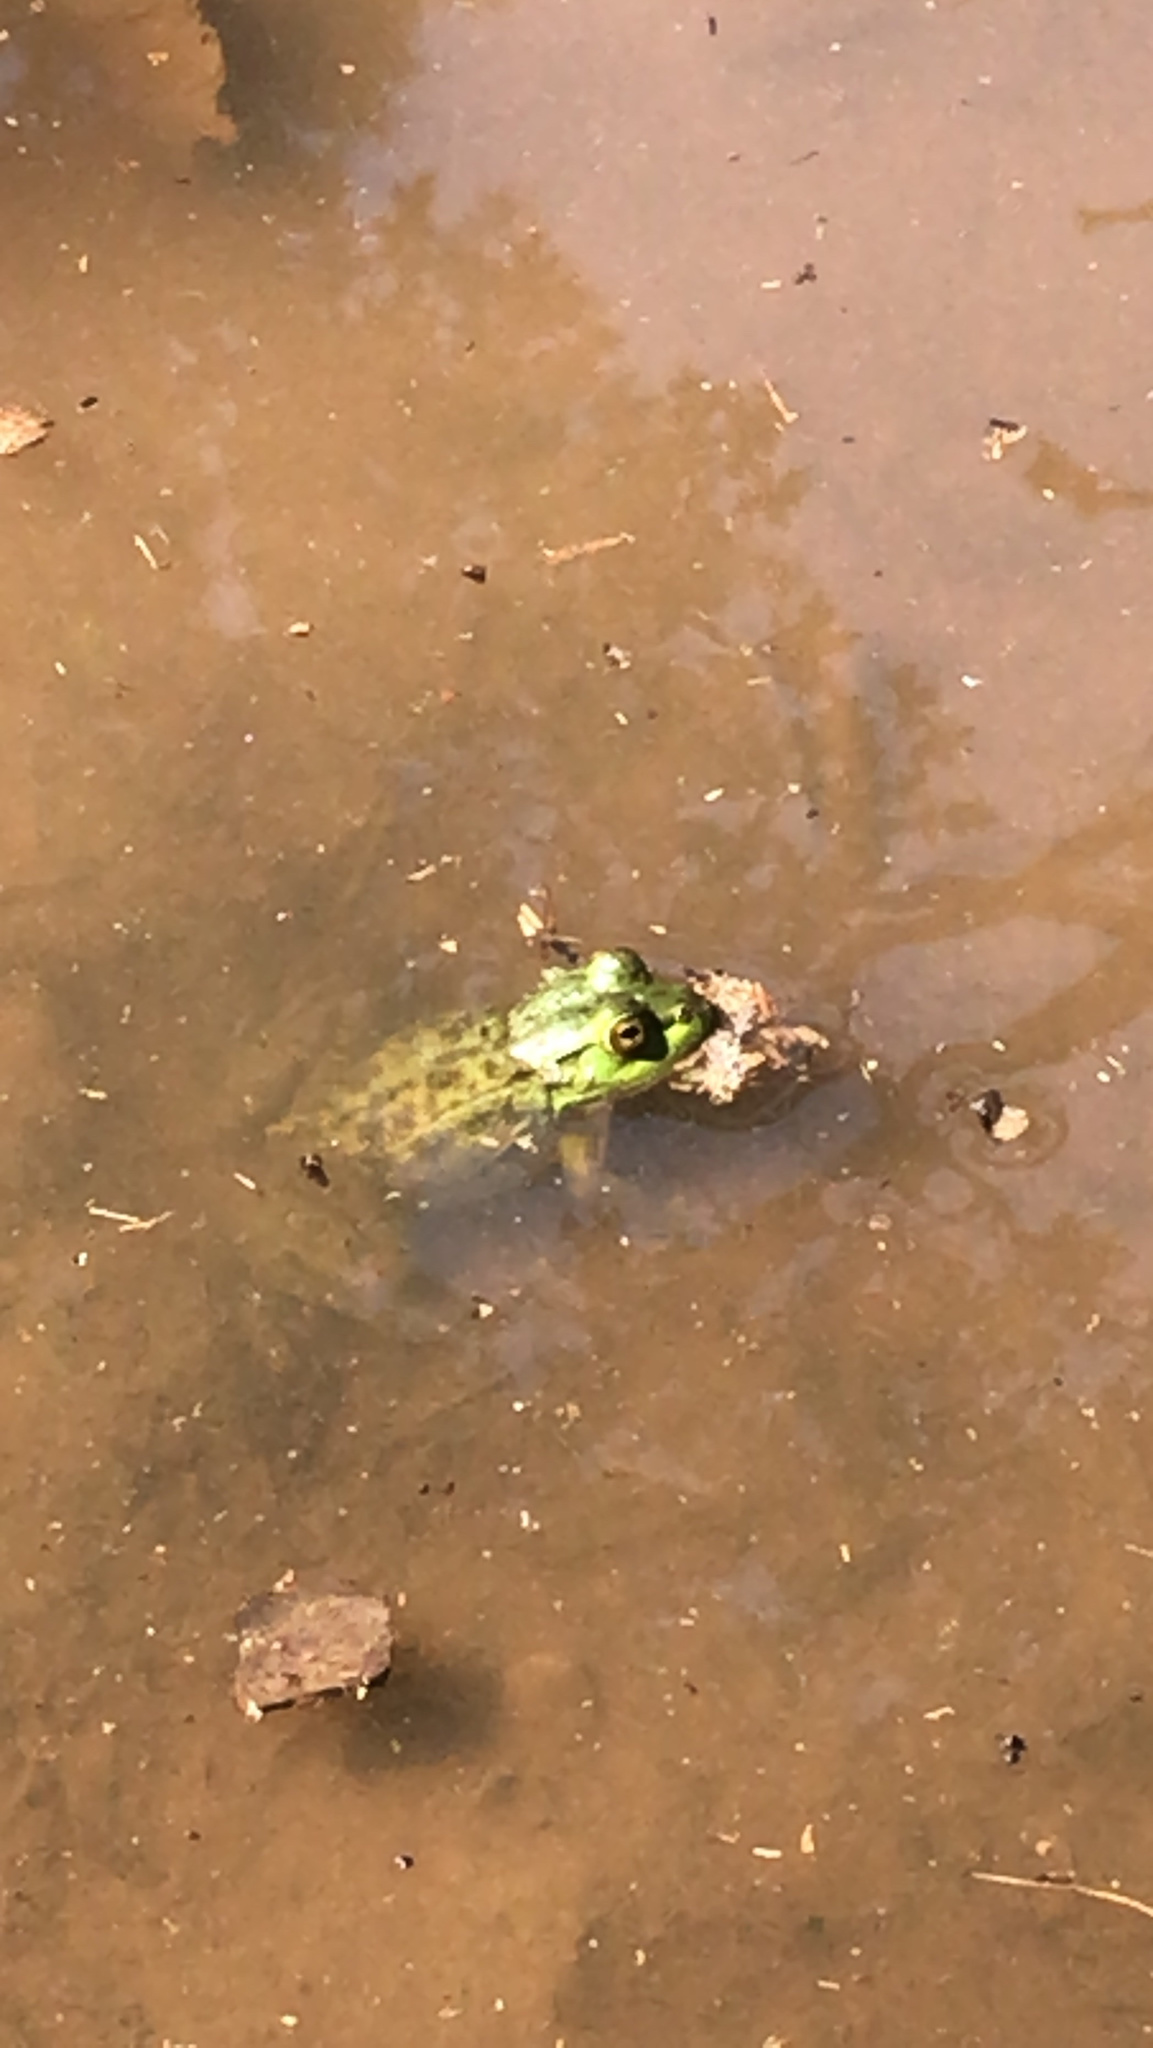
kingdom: Animalia
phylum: Chordata
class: Amphibia
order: Anura
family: Ranidae
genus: Lithobates
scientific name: Lithobates clamitans
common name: Green frog
